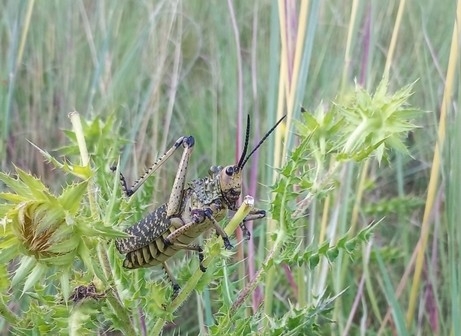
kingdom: Animalia
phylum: Arthropoda
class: Insecta
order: Orthoptera
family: Pyrgomorphidae
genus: Phymateus
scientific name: Phymateus leprosus
